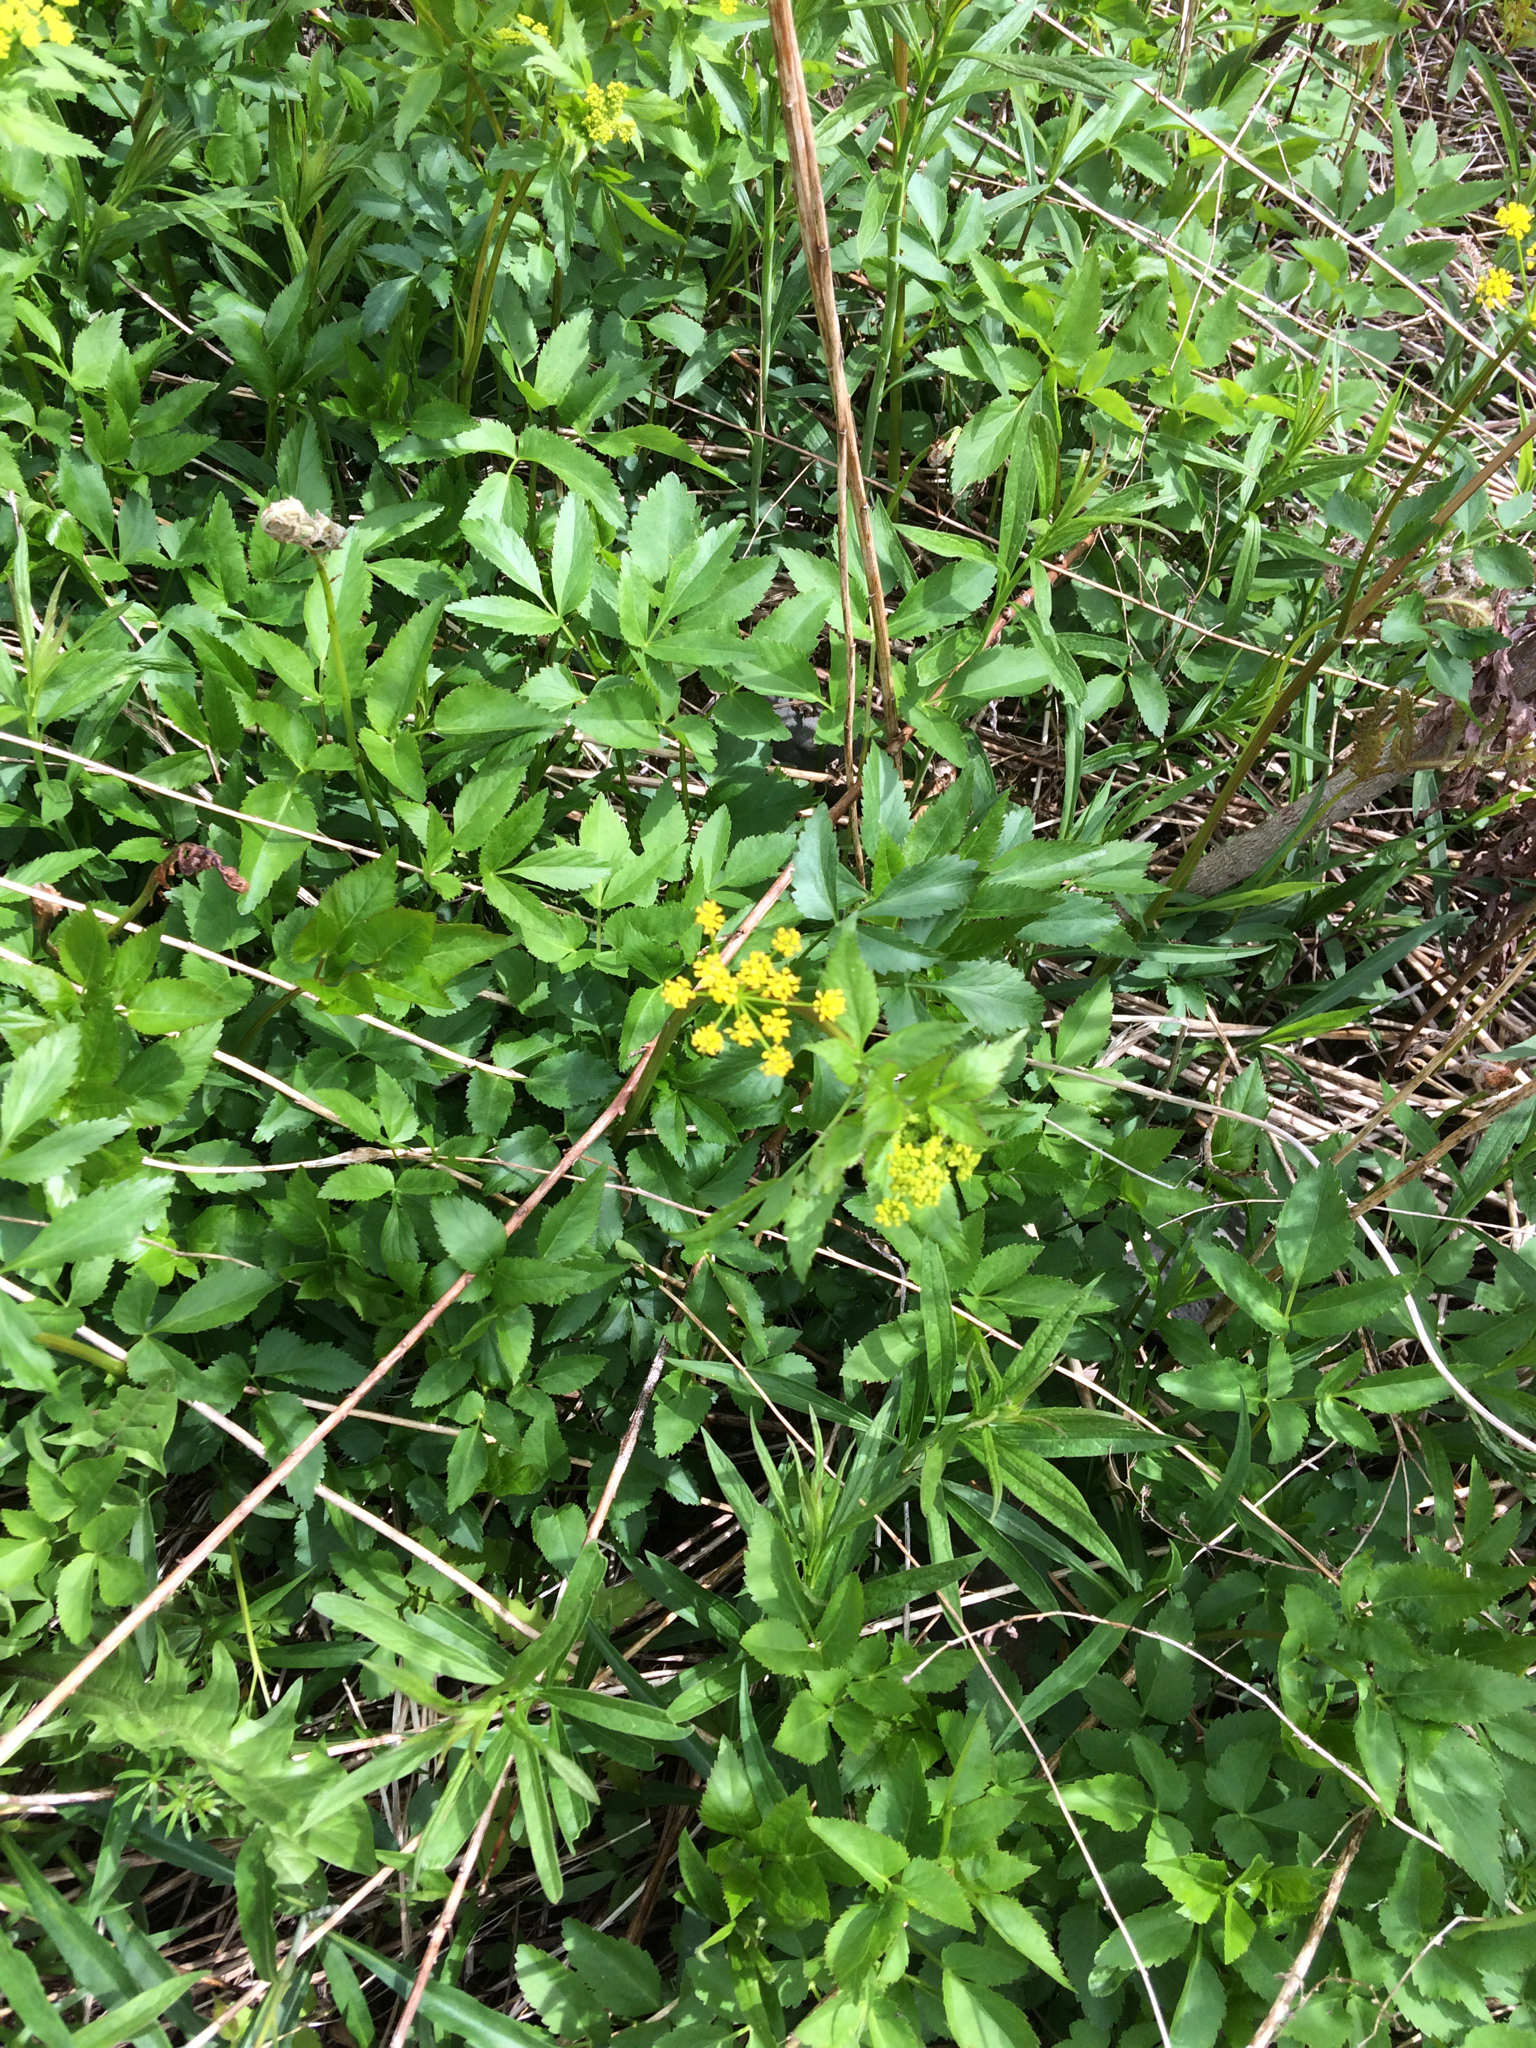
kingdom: Plantae
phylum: Tracheophyta
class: Magnoliopsida
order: Apiales
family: Apiaceae
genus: Zizia
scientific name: Zizia aurea
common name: Golden alexanders
